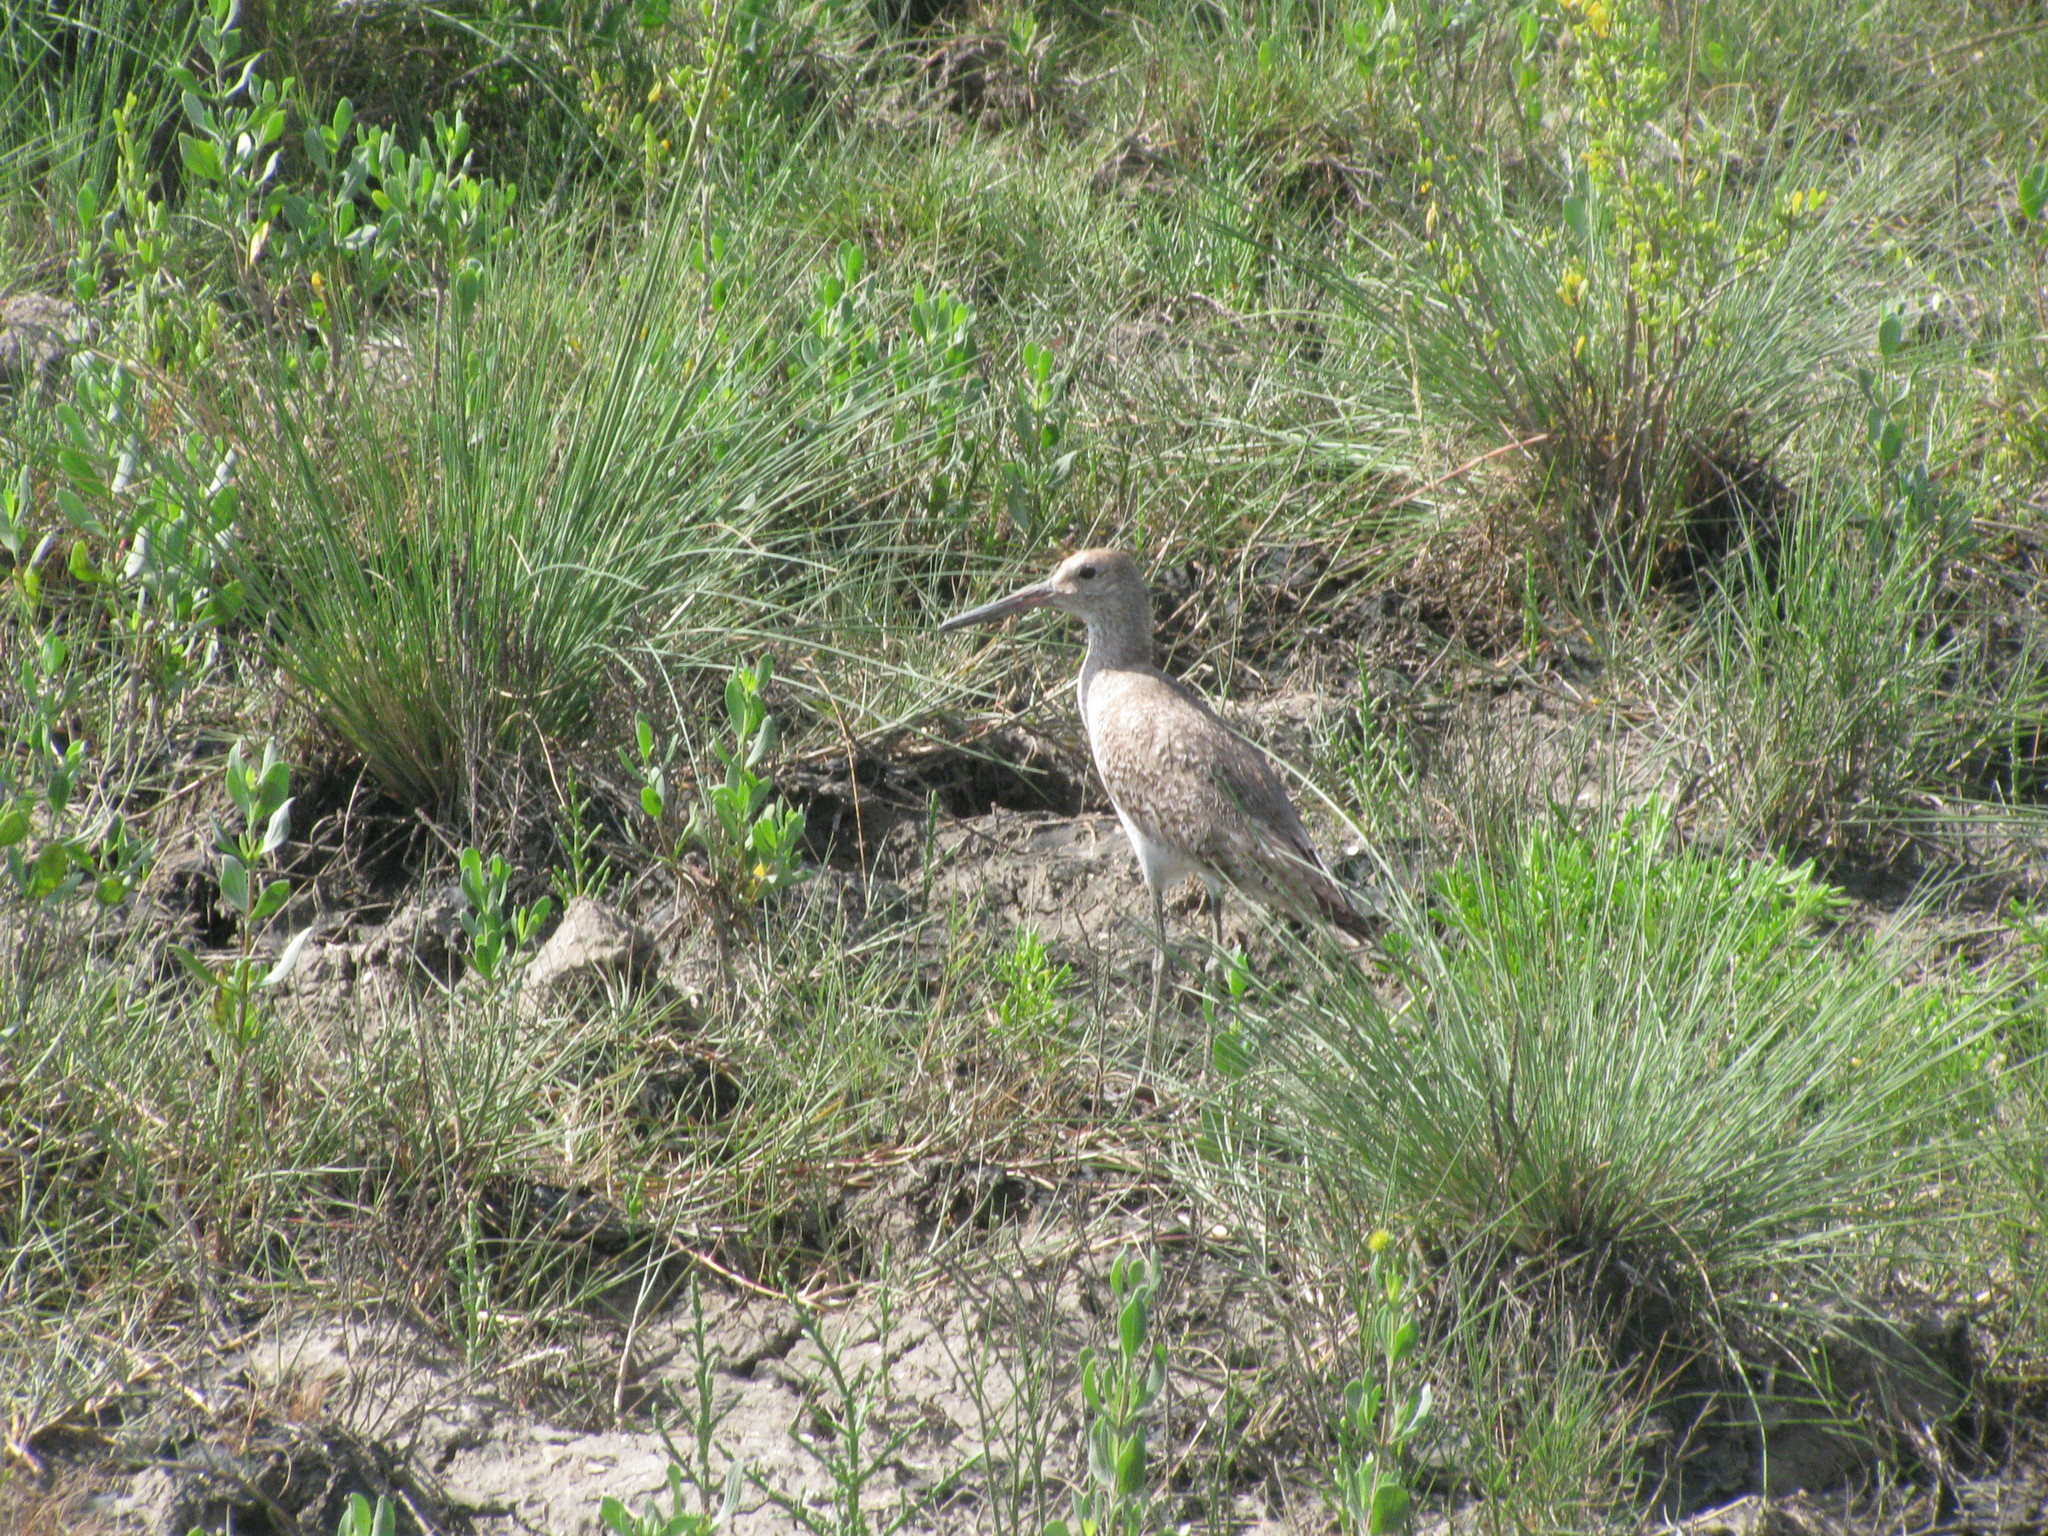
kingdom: Animalia
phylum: Chordata
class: Aves
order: Charadriiformes
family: Scolopacidae
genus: Tringa
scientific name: Tringa semipalmata
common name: Willet
